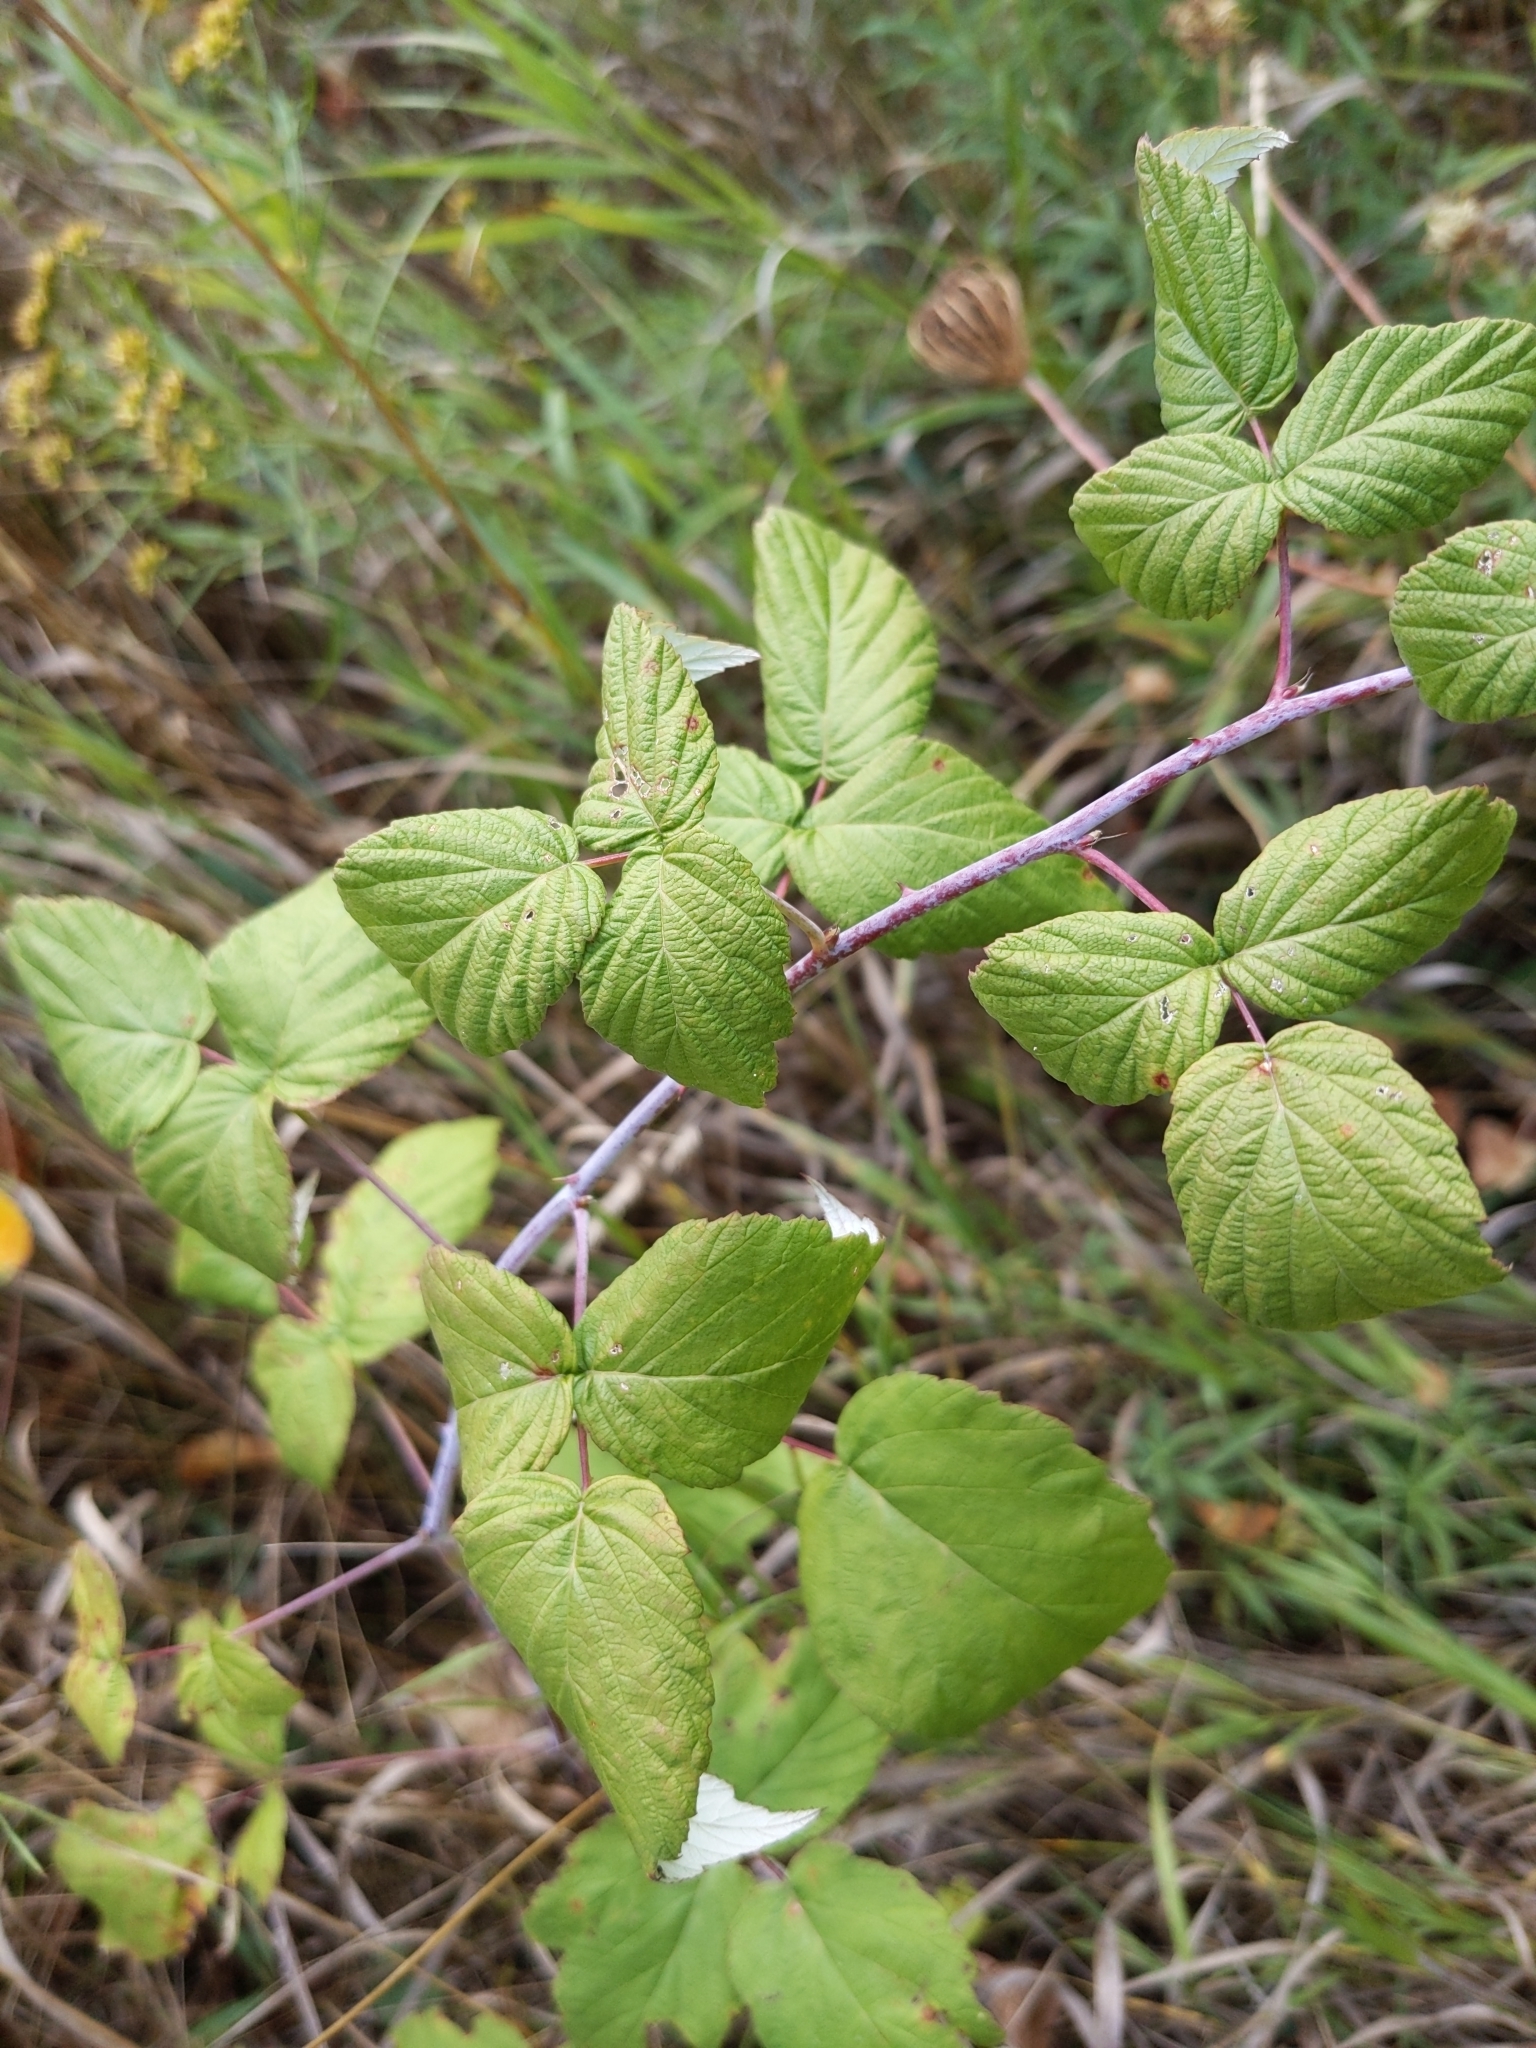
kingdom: Plantae
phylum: Tracheophyta
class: Magnoliopsida
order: Rosales
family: Rosaceae
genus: Rubus
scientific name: Rubus occidentalis
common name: Black raspberry
